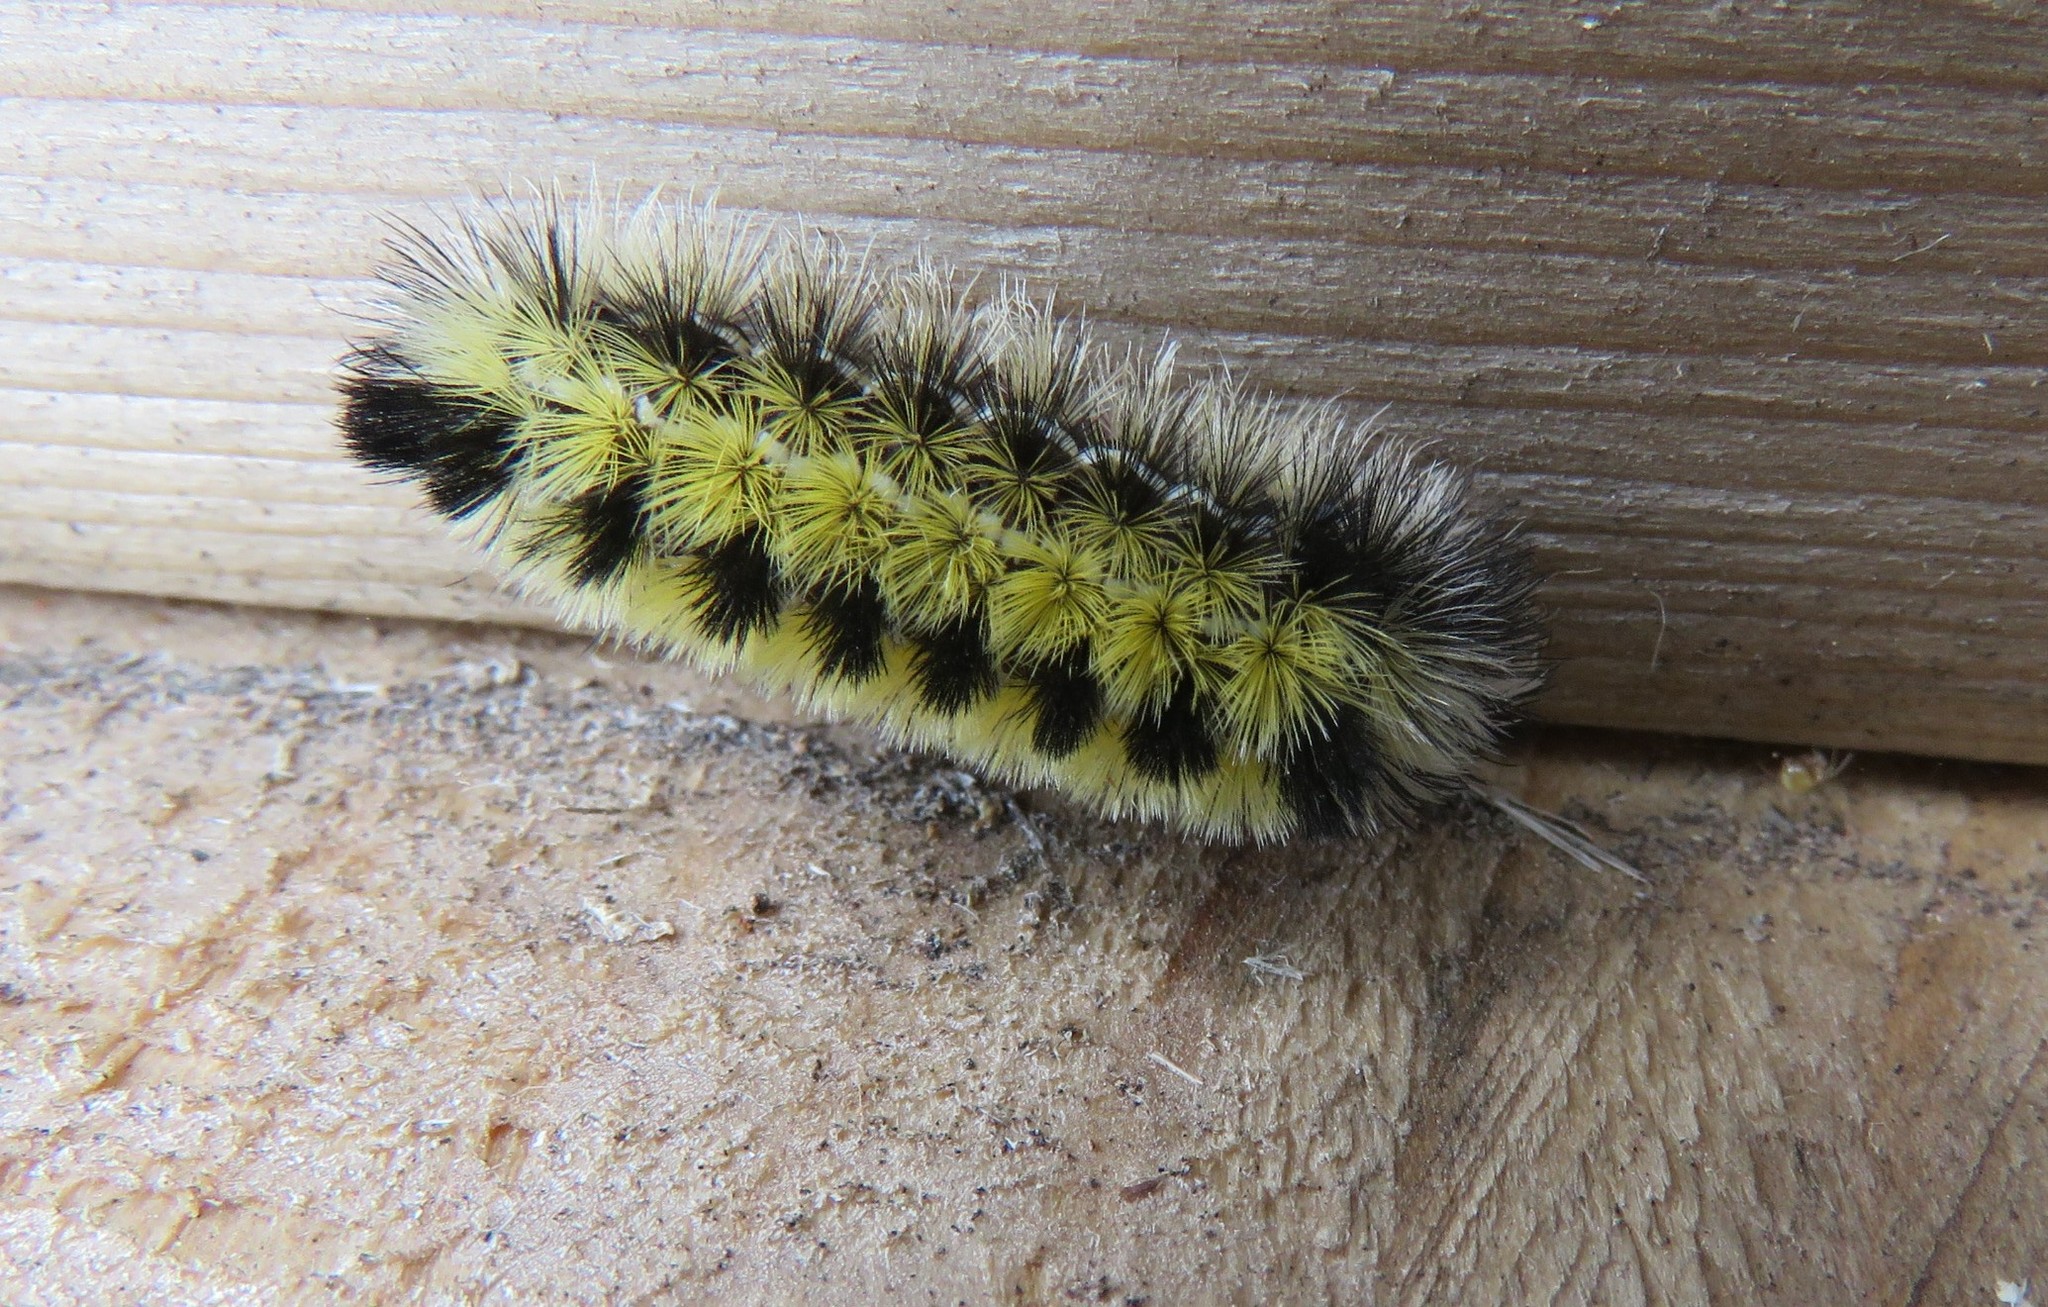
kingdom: Animalia
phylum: Arthropoda
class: Insecta
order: Lepidoptera
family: Erebidae
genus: Ctenucha
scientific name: Ctenucha virginica
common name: Virginia ctenucha moth
